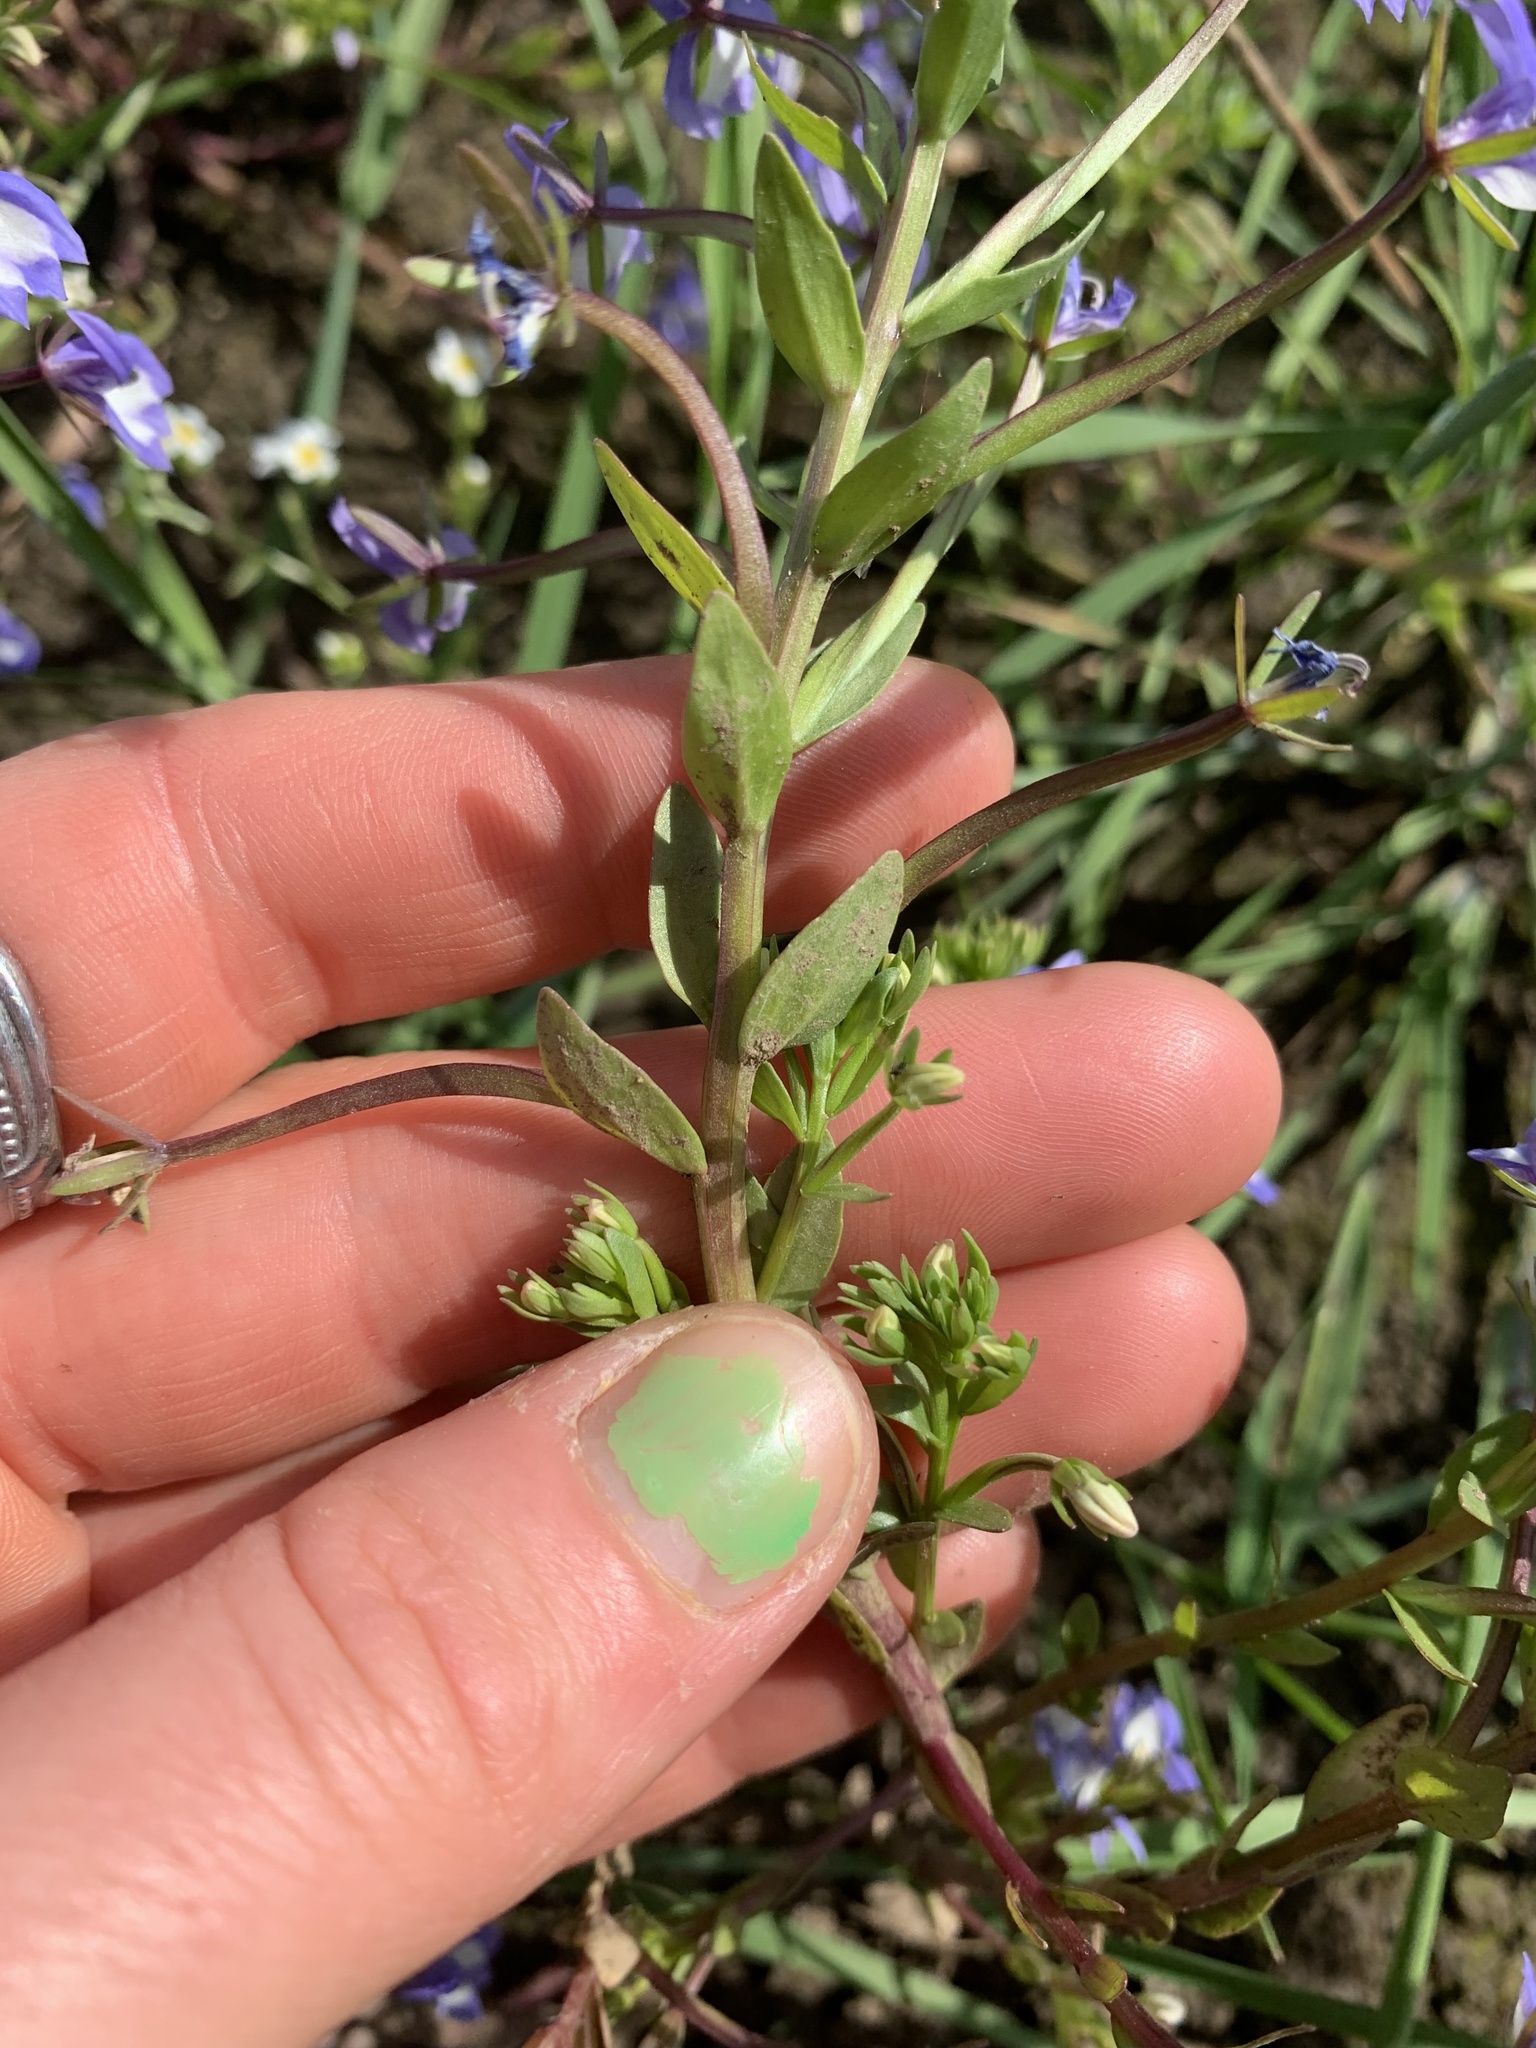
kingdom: Plantae
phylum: Tracheophyta
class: Magnoliopsida
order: Asterales
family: Campanulaceae
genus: Downingia
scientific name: Downingia elegans
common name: Californian lobelia
